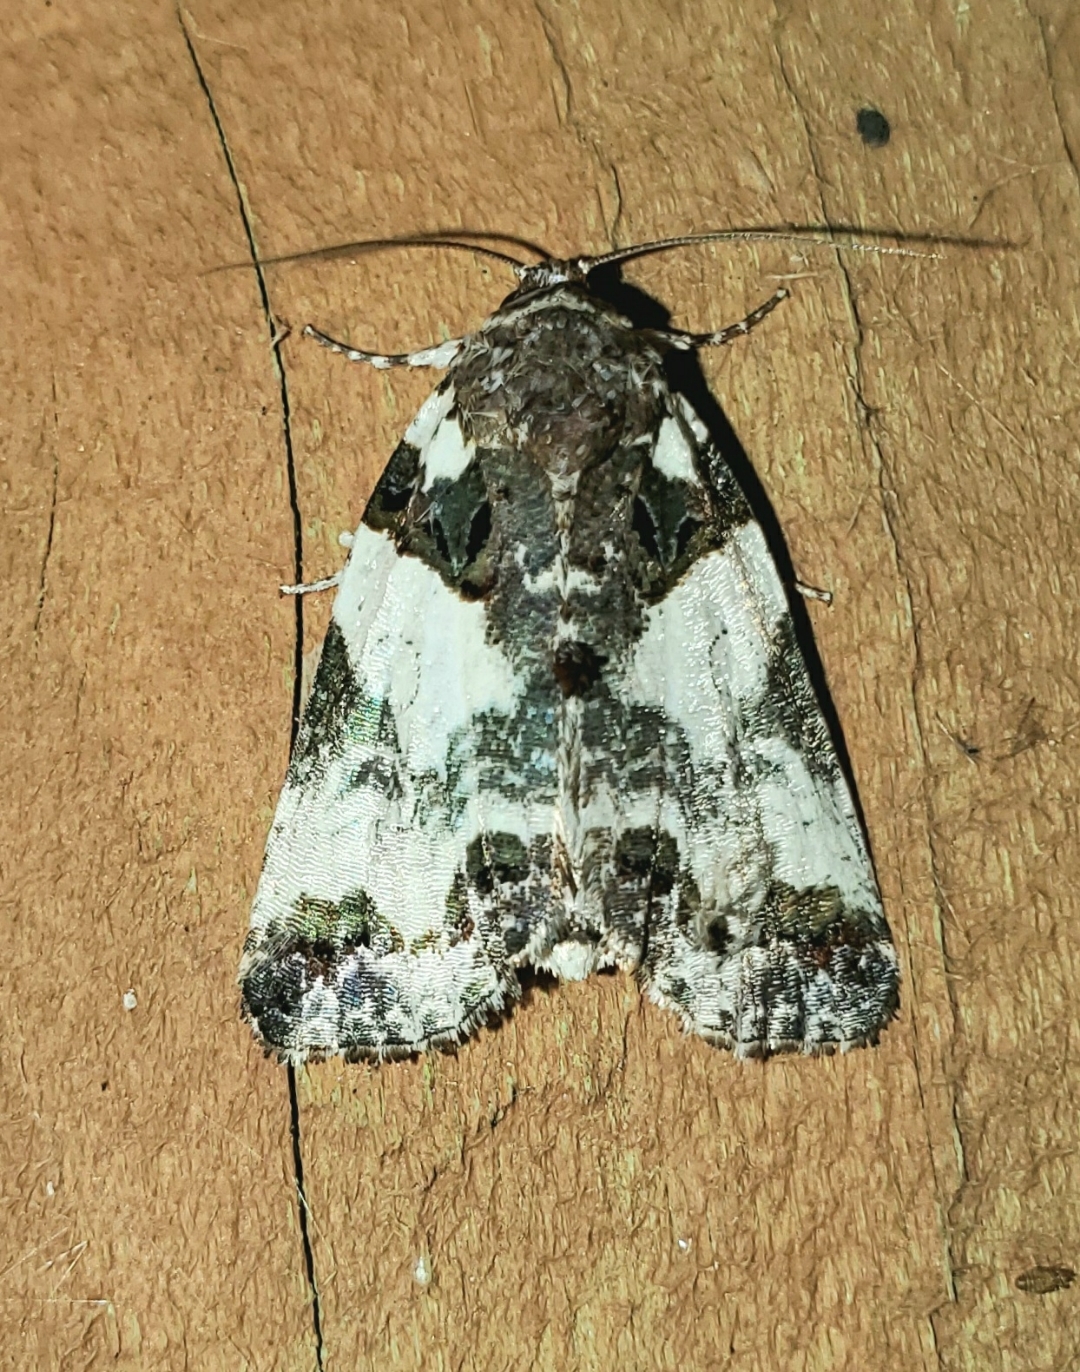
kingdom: Animalia
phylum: Arthropoda
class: Insecta
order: Lepidoptera
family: Noctuidae
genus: Cerma
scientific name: Cerma cerintha
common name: Tufted bird-dropping moth
